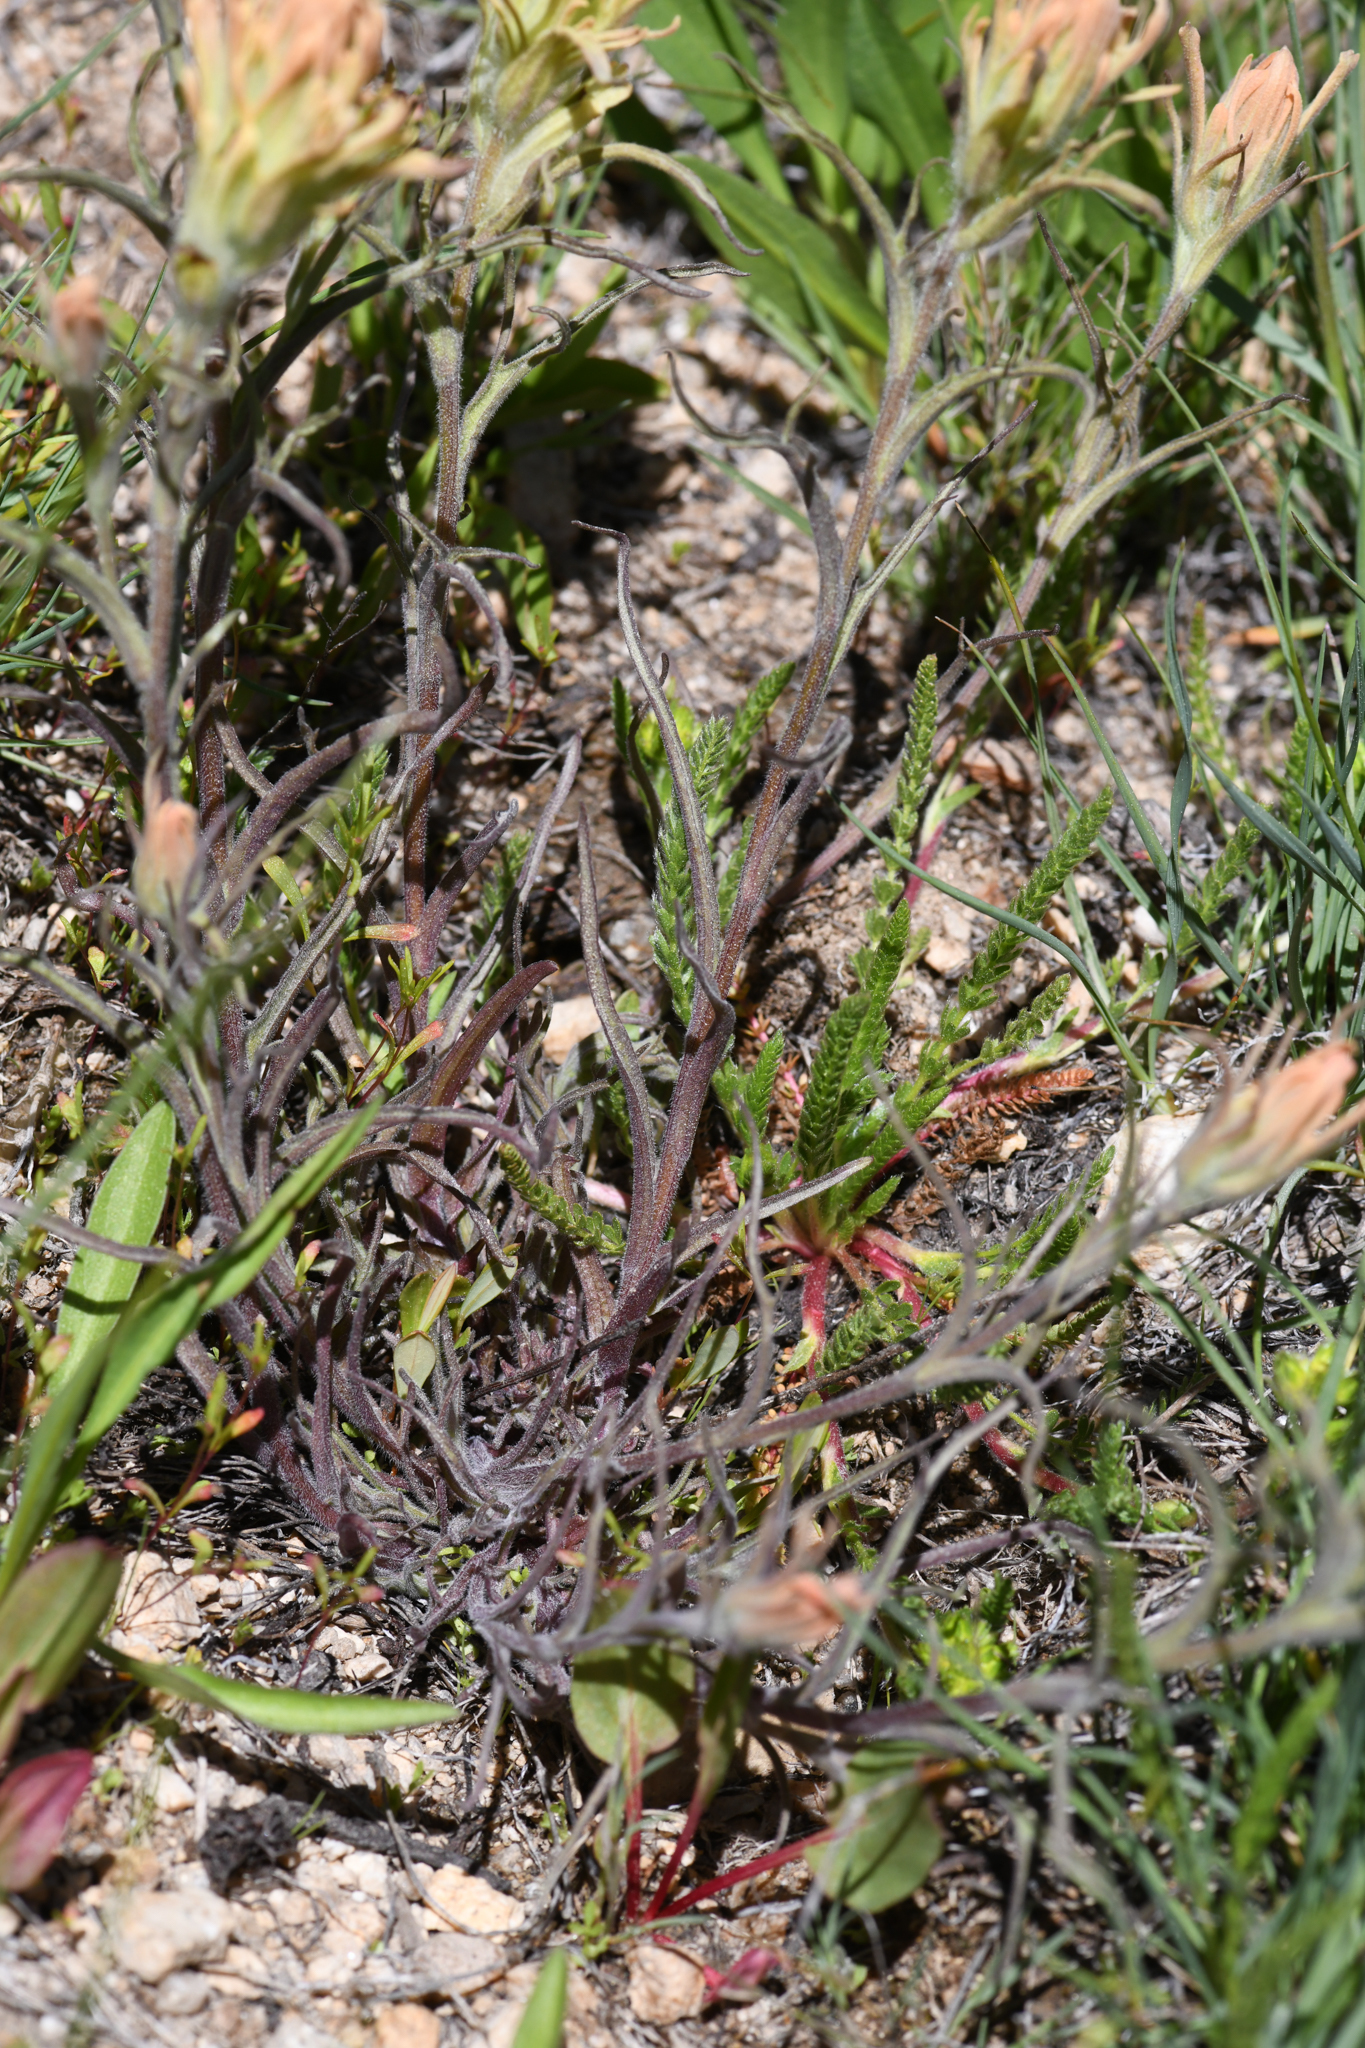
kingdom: Plantae
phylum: Tracheophyta
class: Magnoliopsida
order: Lamiales
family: Orobanchaceae
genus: Castilleja
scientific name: Castilleja praeterita
